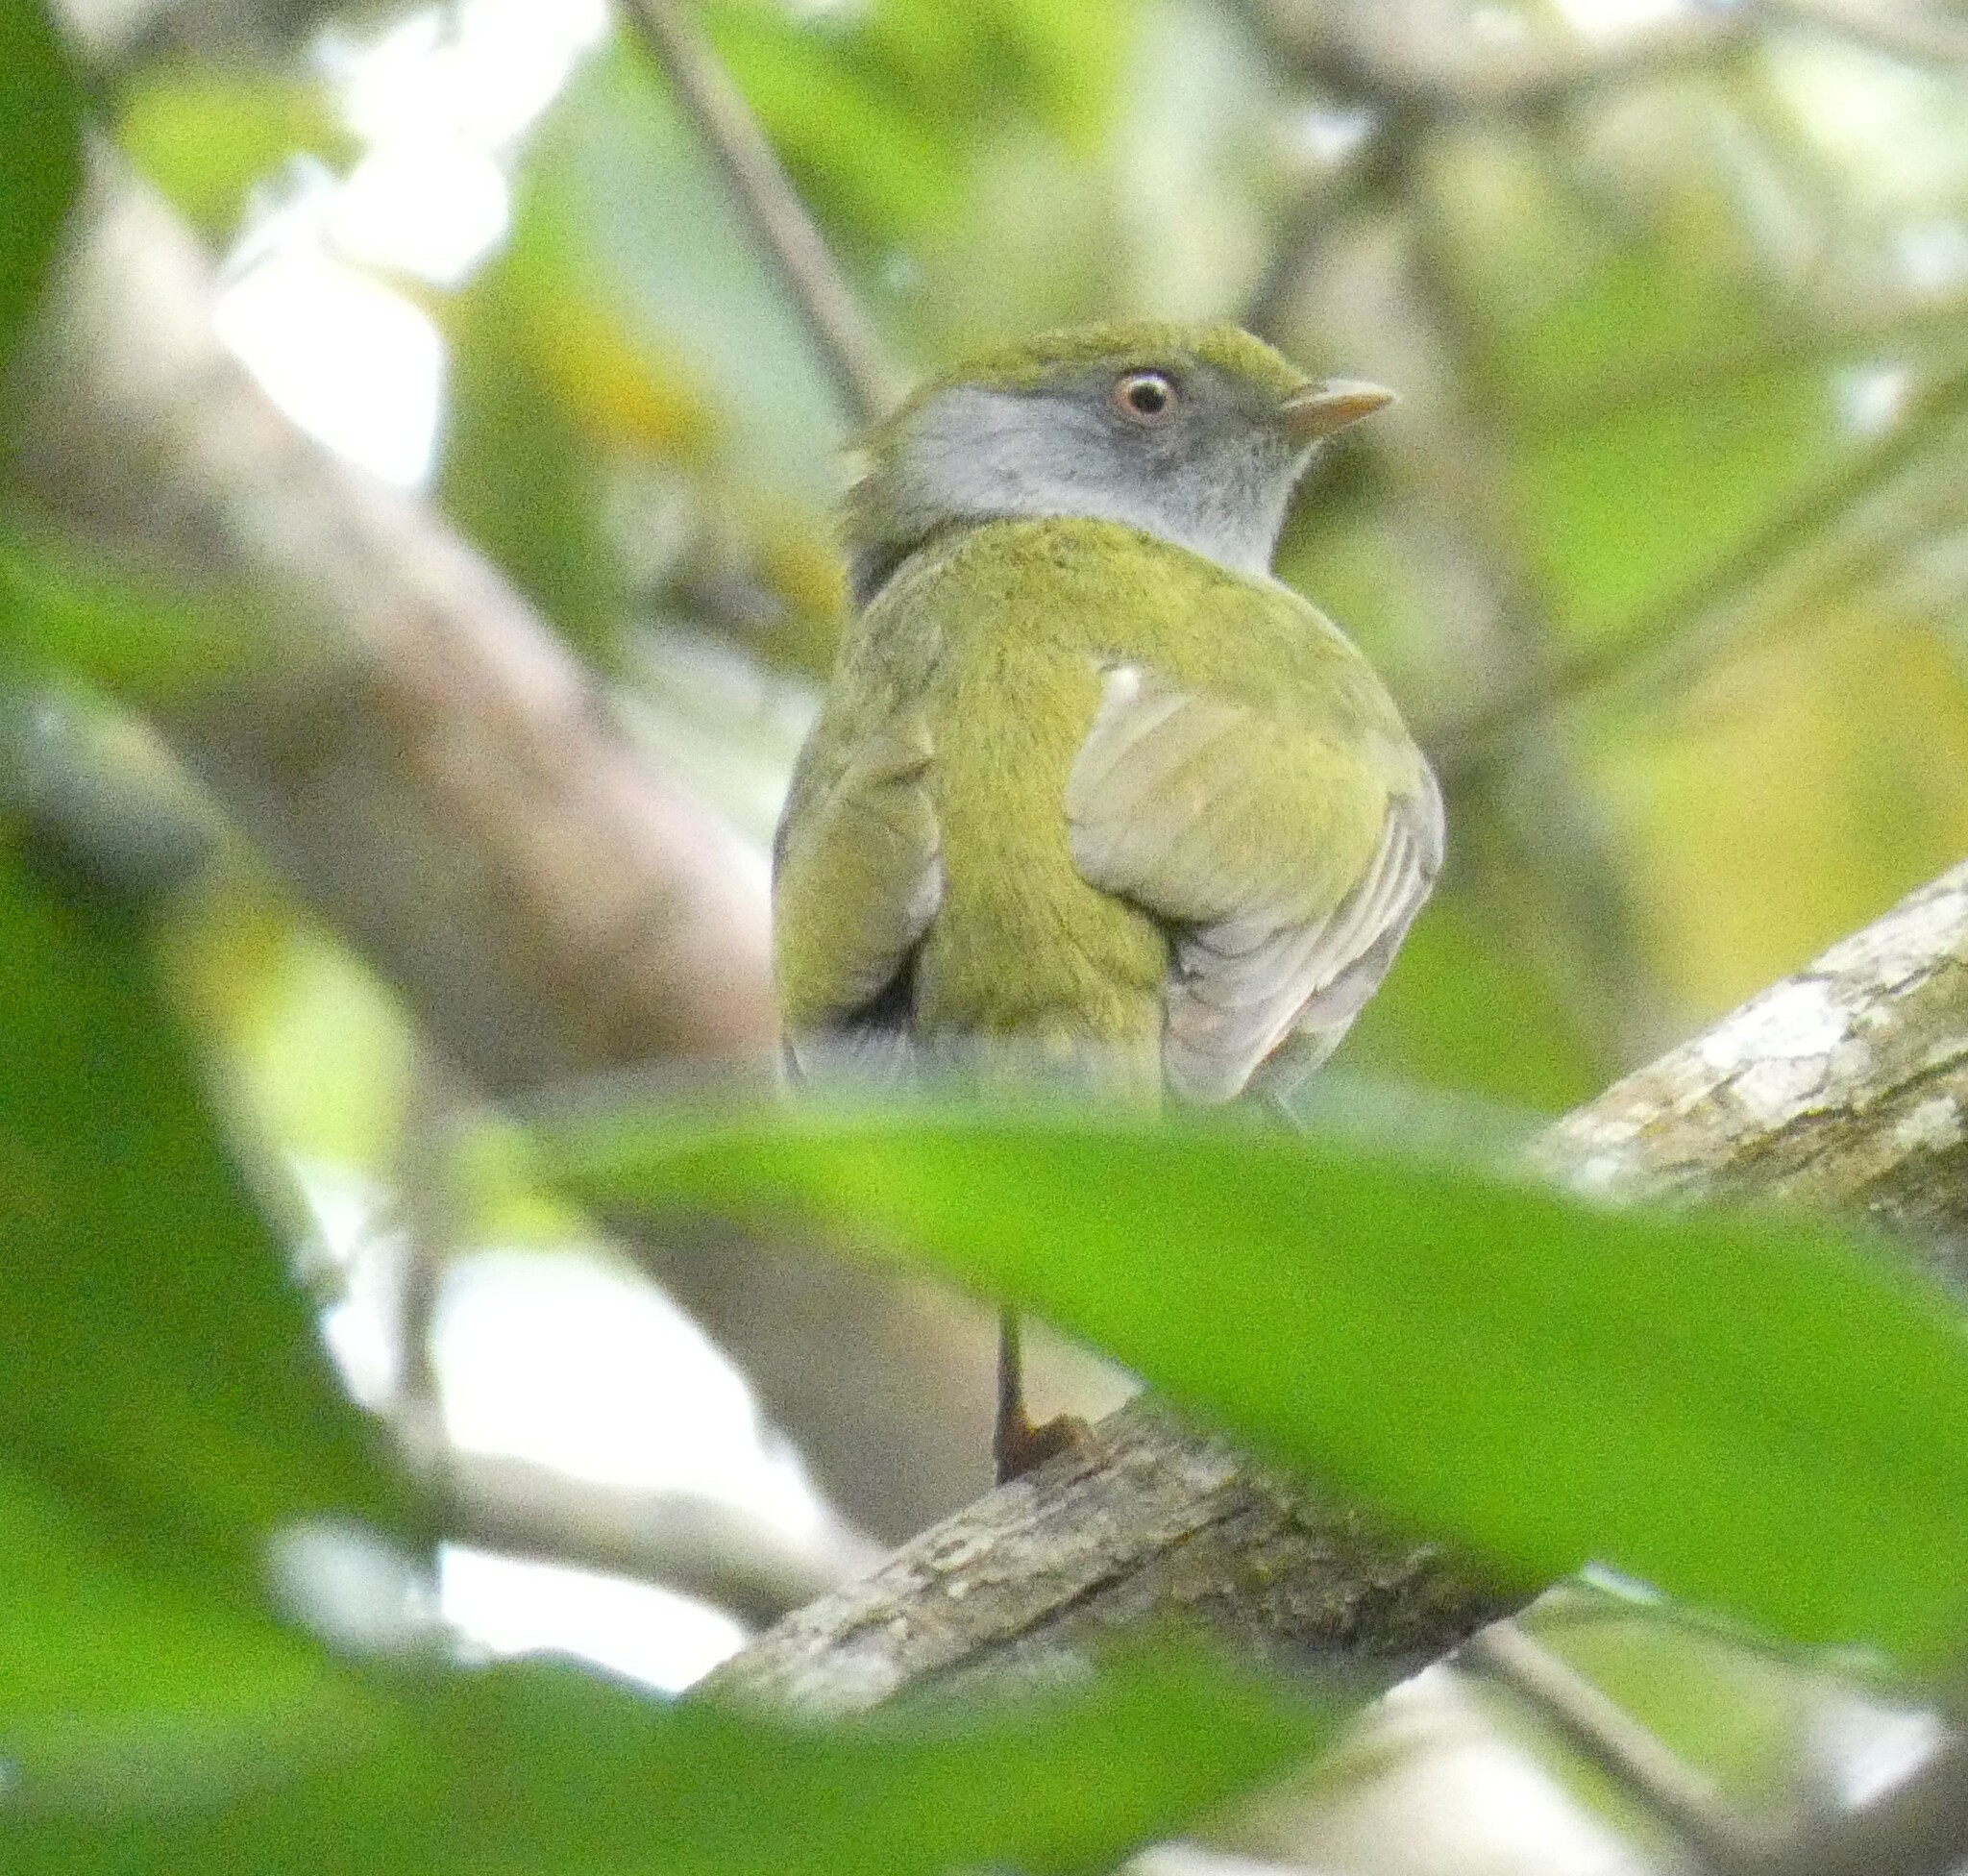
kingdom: Animalia
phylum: Chordata
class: Aves
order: Passeriformes
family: Pipridae
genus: Ilicura
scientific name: Ilicura militaris
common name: Pin-tailed manakin
